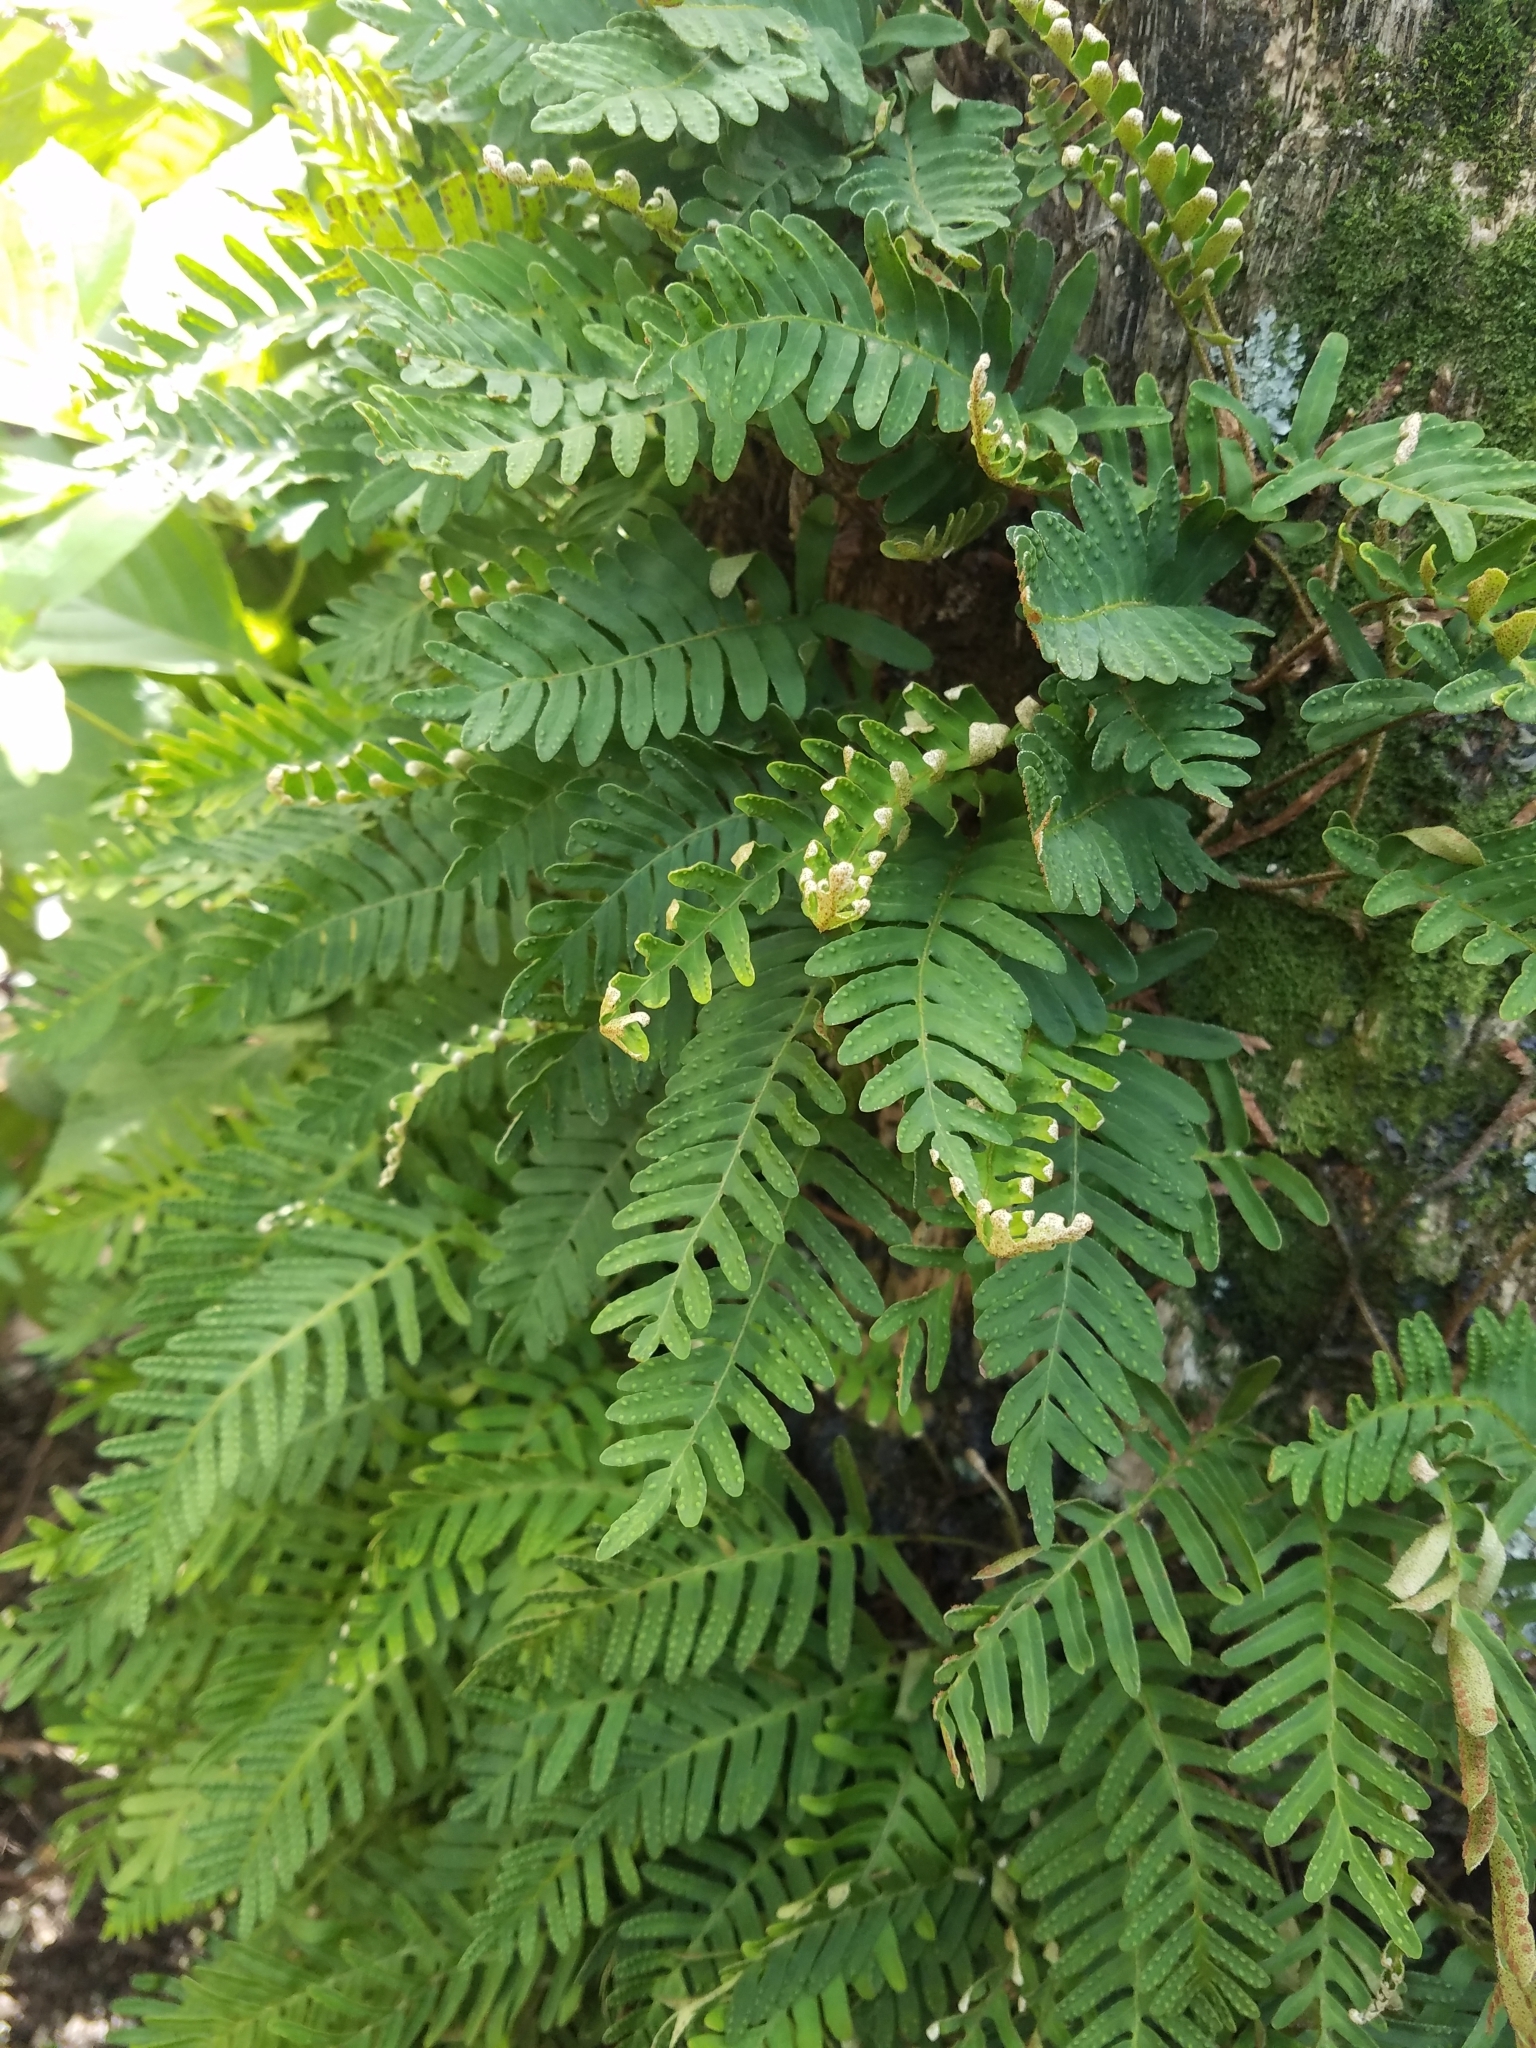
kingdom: Plantae
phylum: Tracheophyta
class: Polypodiopsida
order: Polypodiales
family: Polypodiaceae
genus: Pleopeltis
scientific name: Pleopeltis michauxiana
